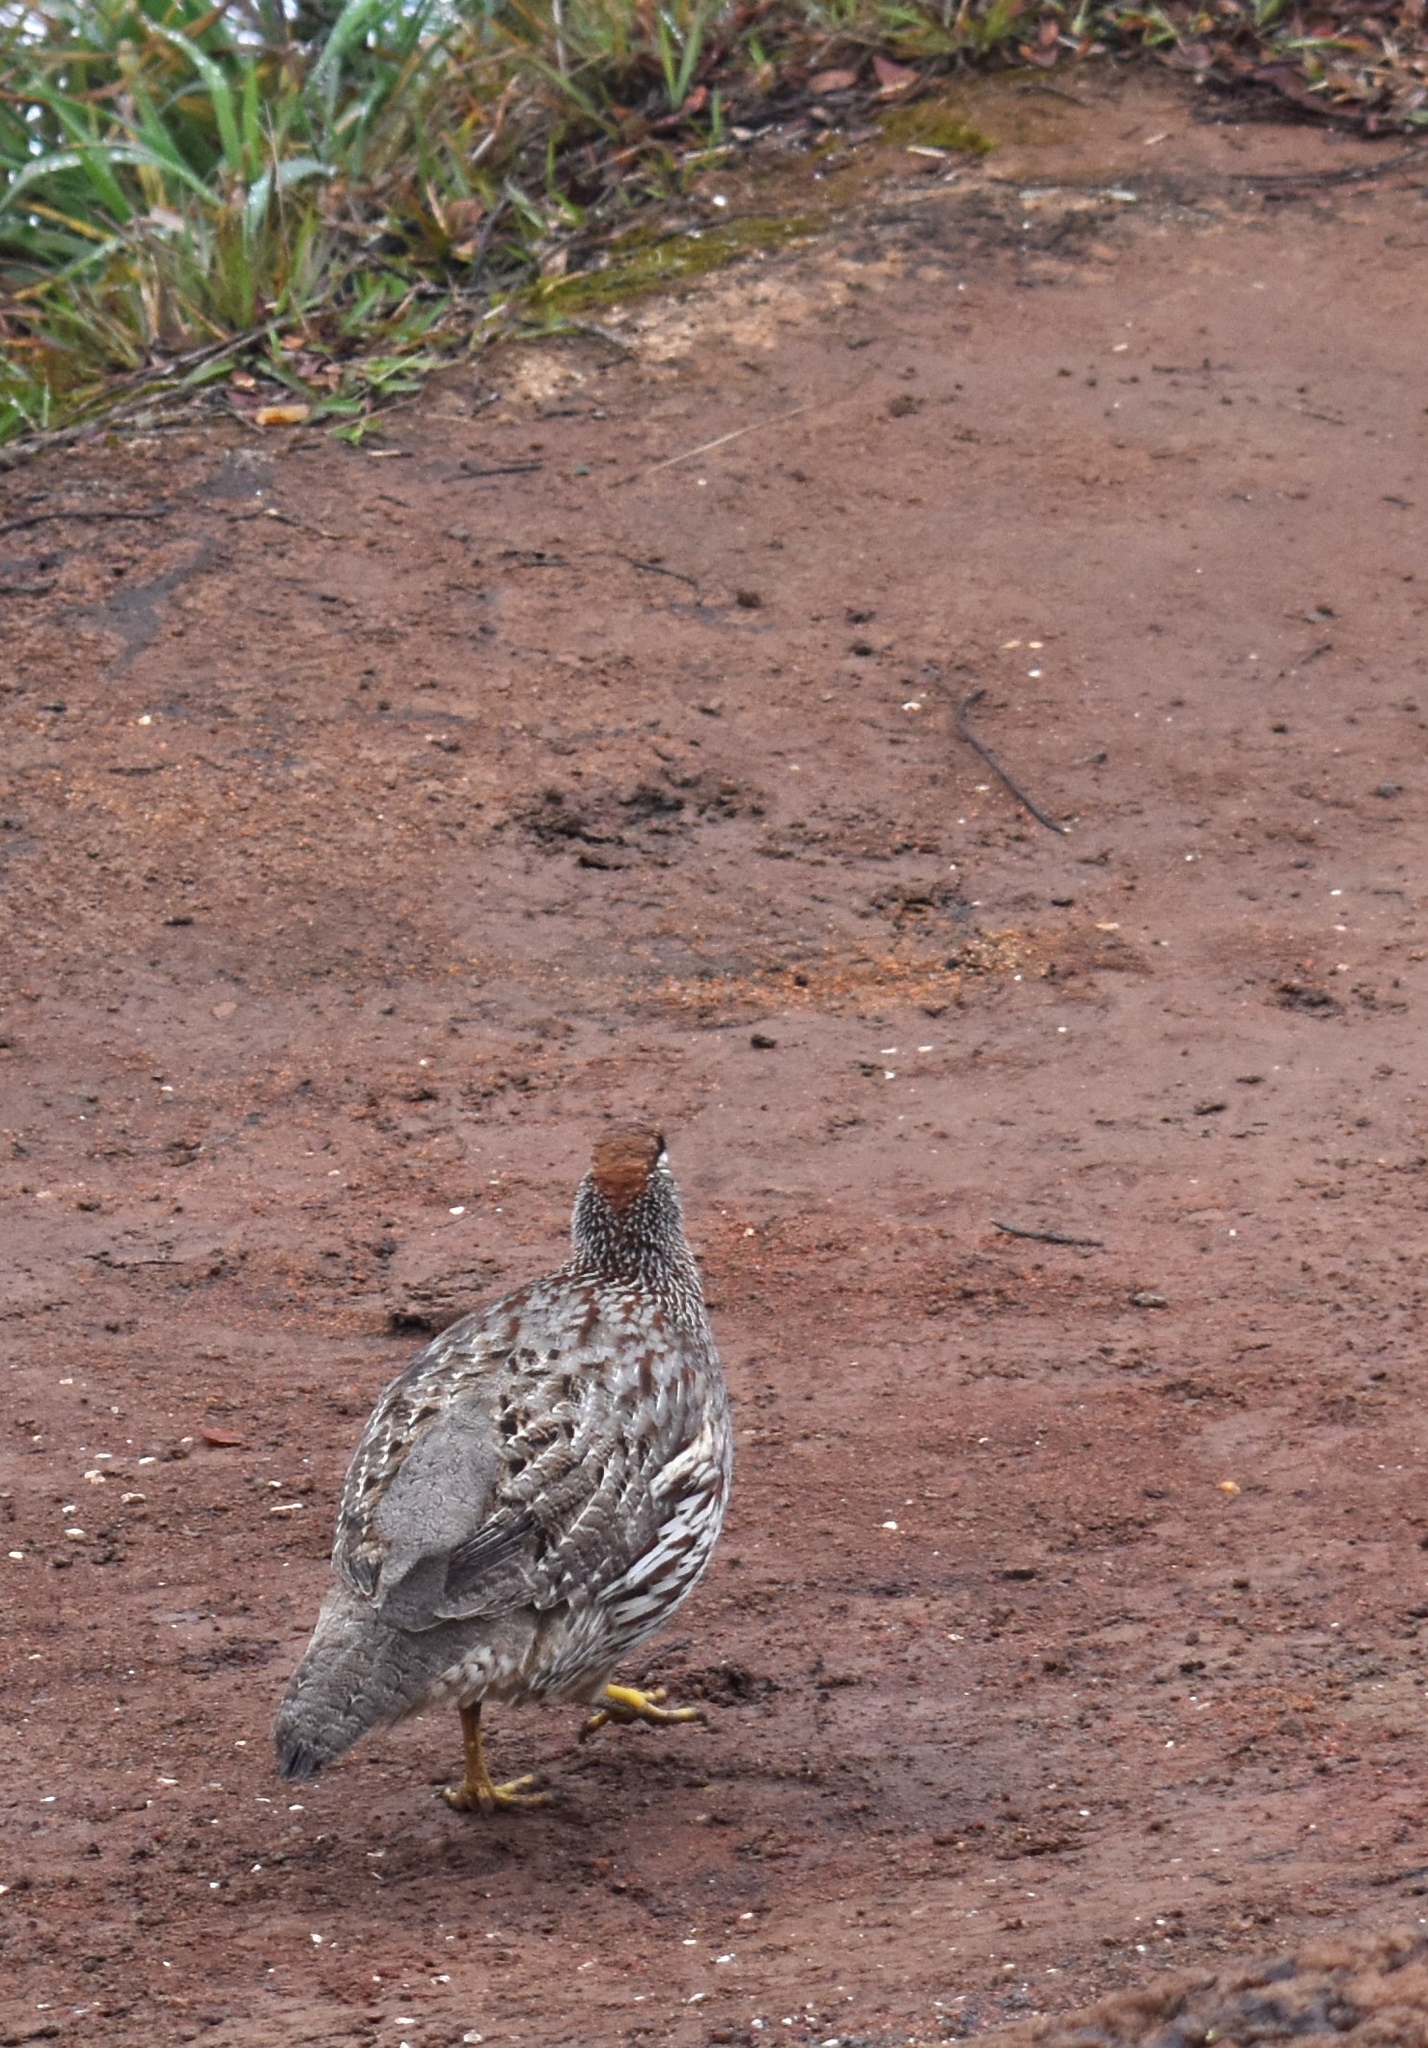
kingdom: Animalia
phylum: Chordata
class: Aves
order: Galliformes
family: Phasianidae
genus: Pternistis
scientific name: Pternistis erckelii
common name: Erckel's francolin
